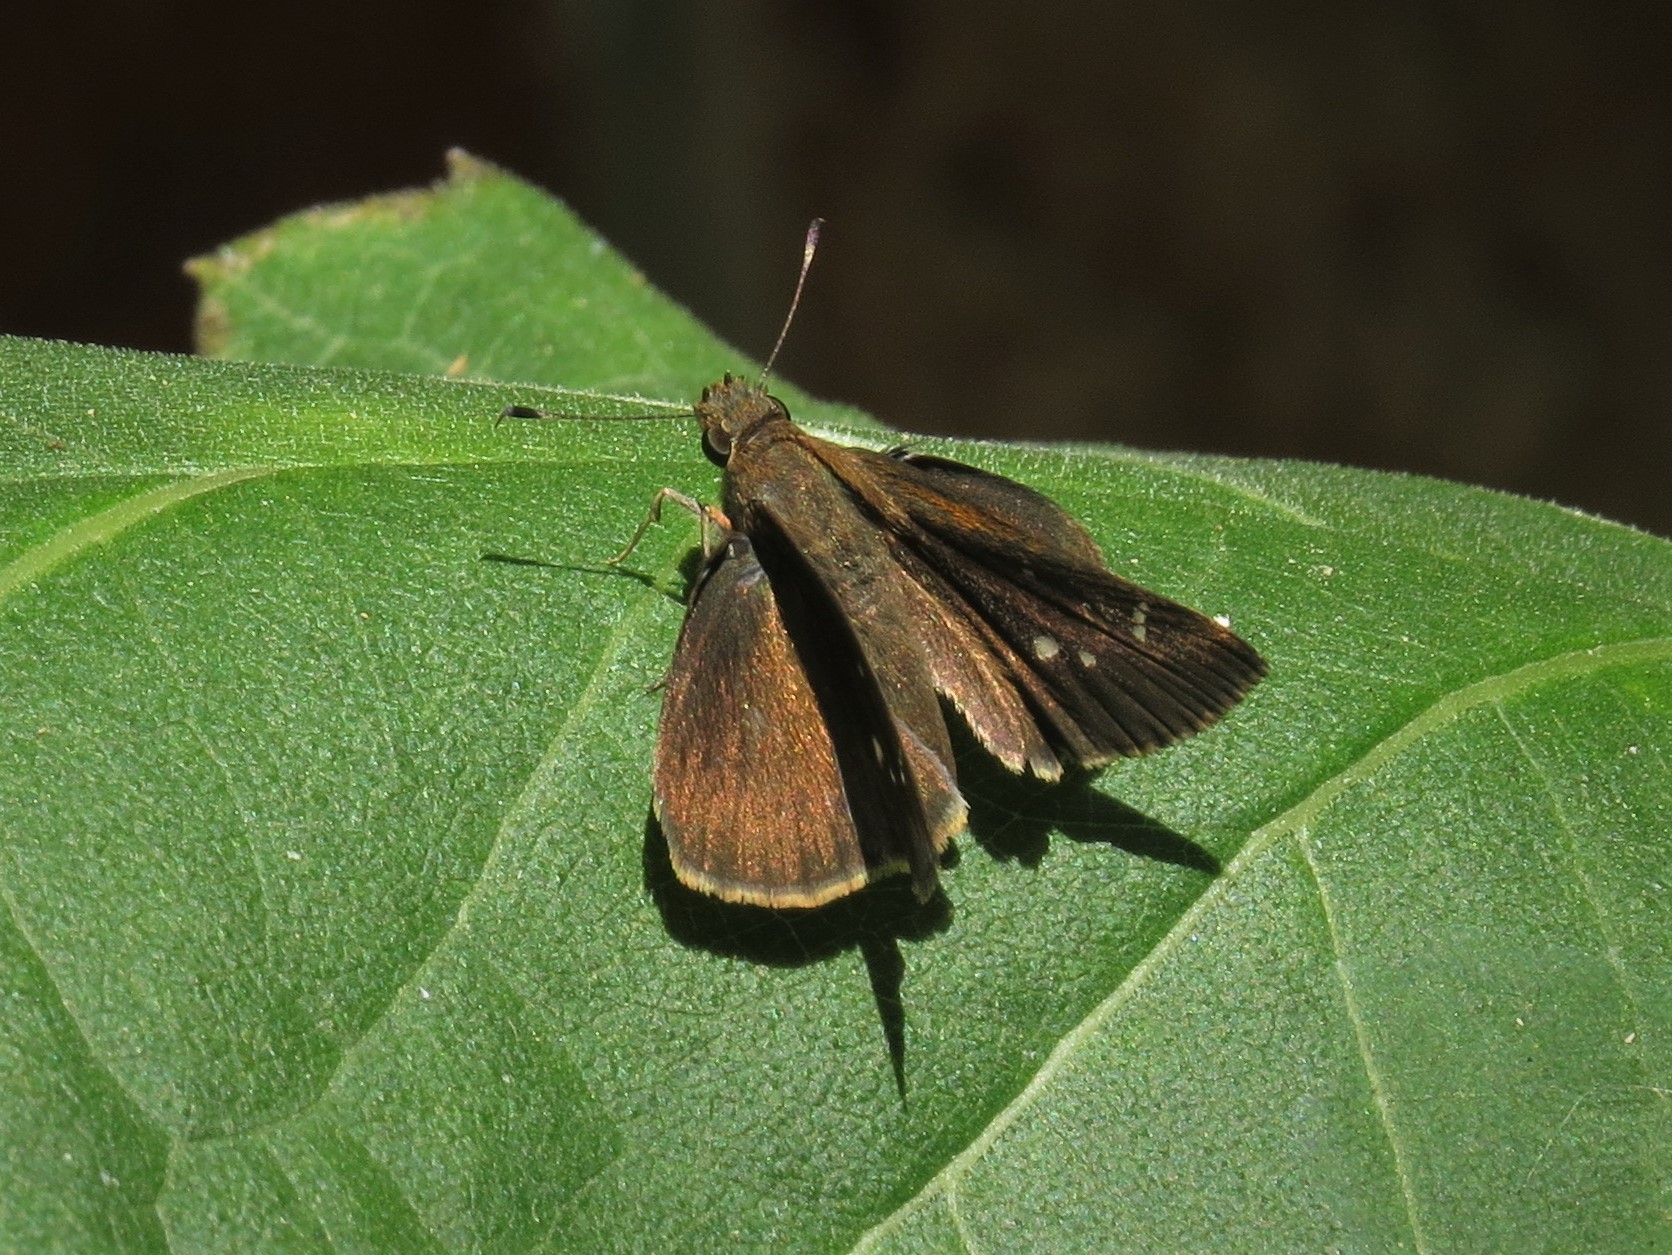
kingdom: Animalia
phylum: Arthropoda
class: Insecta
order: Lepidoptera
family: Hesperiidae
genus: Lerema
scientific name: Lerema accius
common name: Clouded skipper
